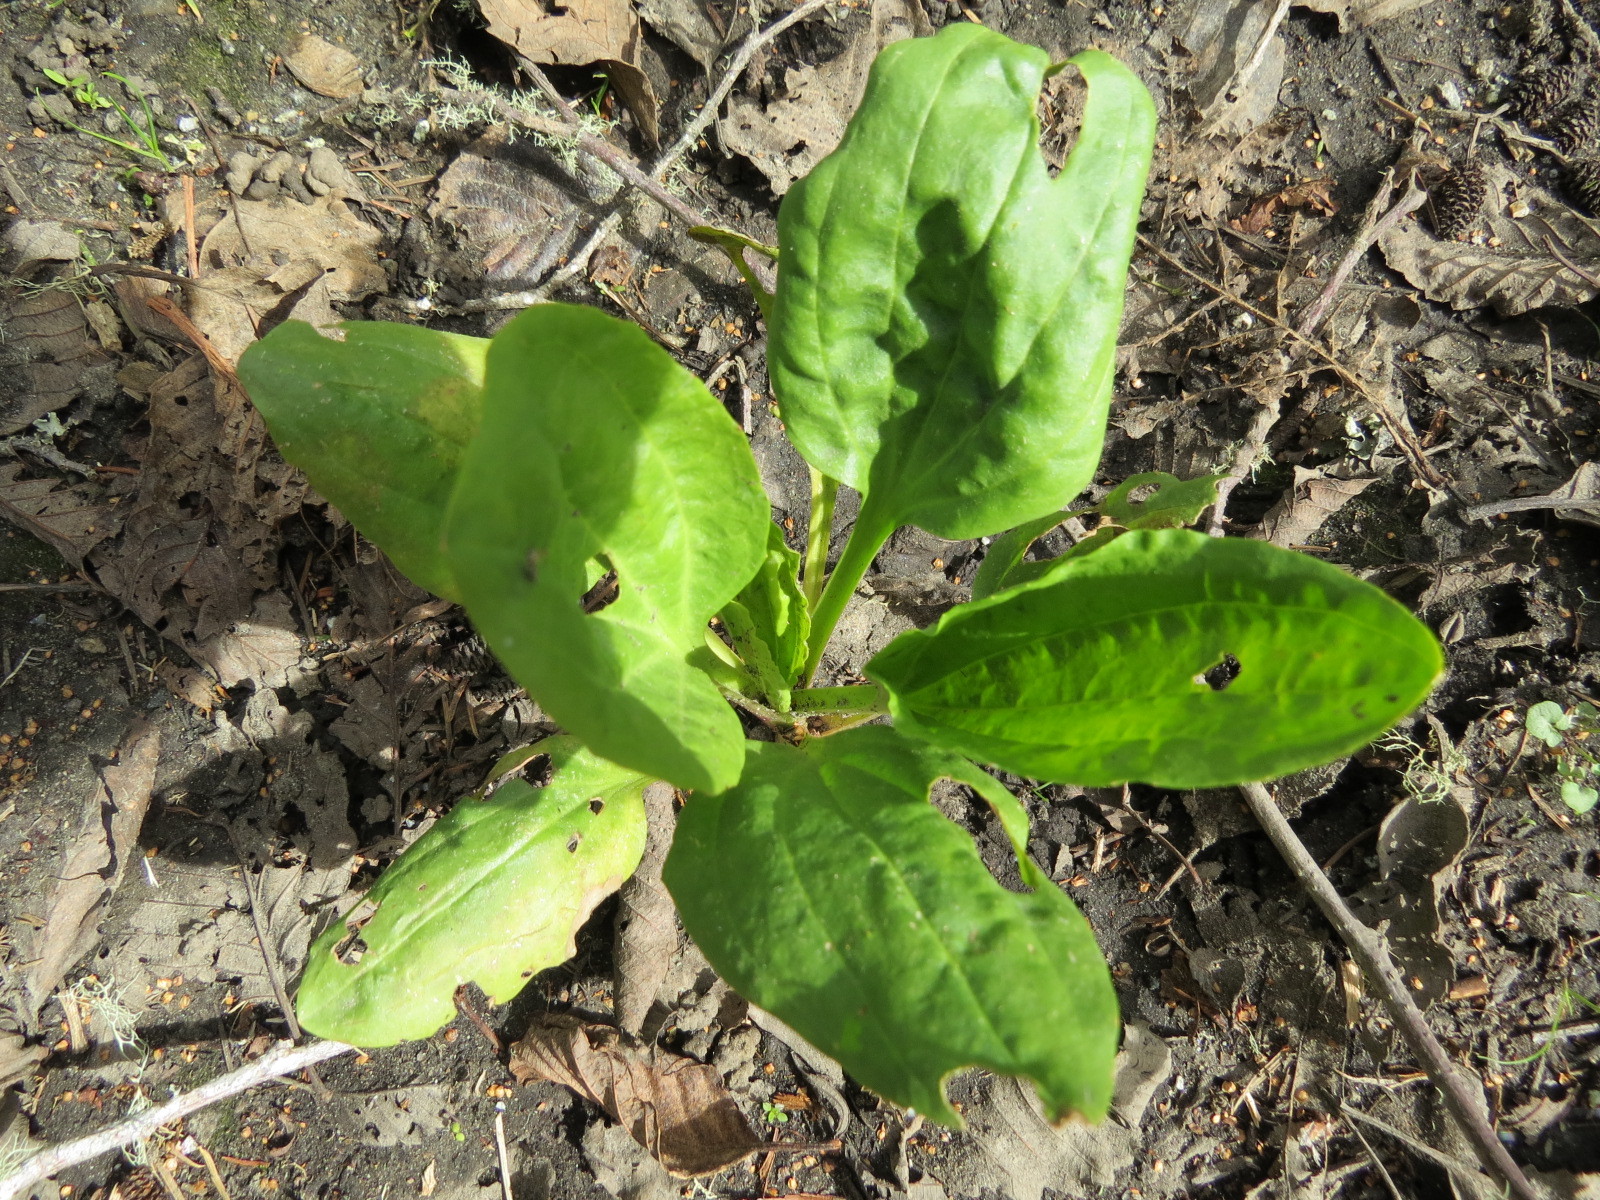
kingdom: Plantae
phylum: Tracheophyta
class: Magnoliopsida
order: Lamiales
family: Plantaginaceae
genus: Plantago
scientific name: Plantago major
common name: Common plantain
